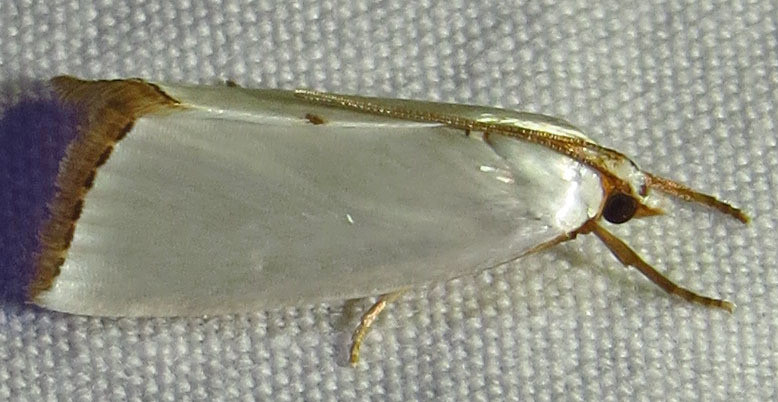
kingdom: Animalia
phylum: Arthropoda
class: Insecta
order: Lepidoptera
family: Crambidae
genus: Argyria
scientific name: Argyria nivalis
